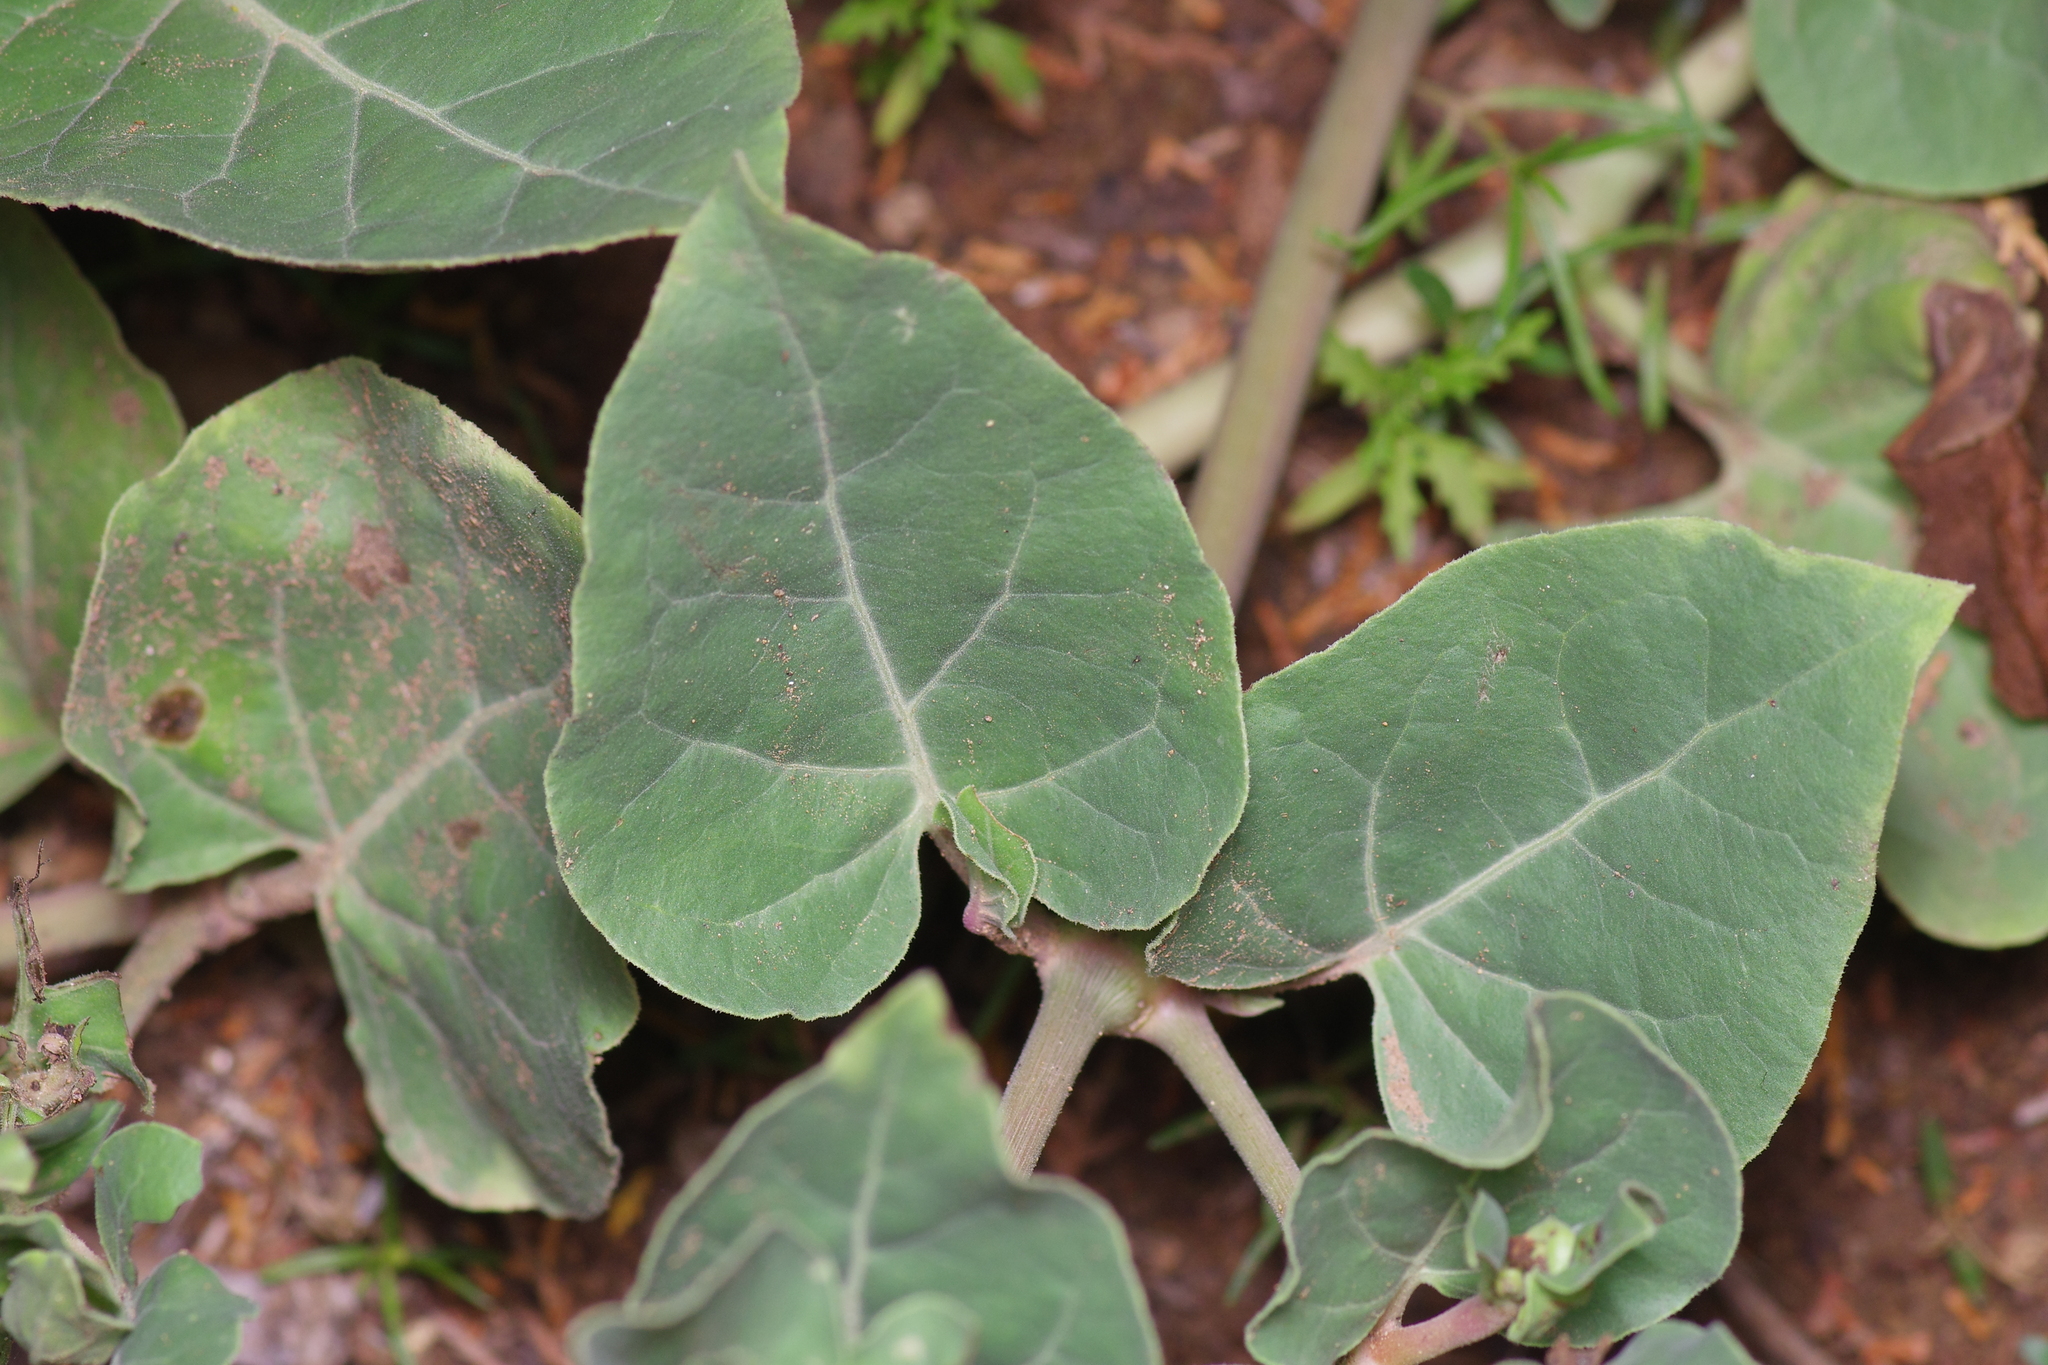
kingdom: Plantae
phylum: Tracheophyta
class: Magnoliopsida
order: Caryophyllales
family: Nyctaginaceae
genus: Mirabilis
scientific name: Mirabilis multiflora
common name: Froebel's four-o'clock
